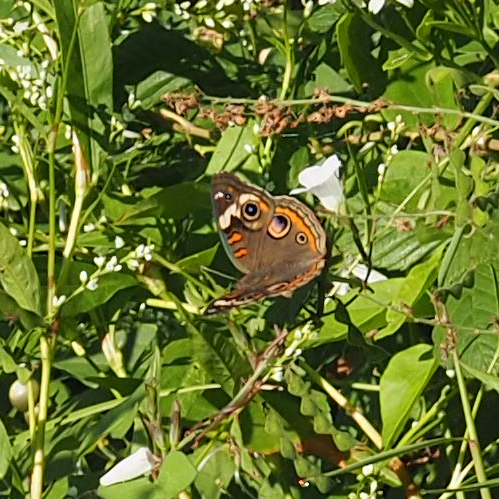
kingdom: Animalia
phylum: Arthropoda
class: Insecta
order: Lepidoptera
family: Nymphalidae
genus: Junonia
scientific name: Junonia coenia
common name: Common buckeye
